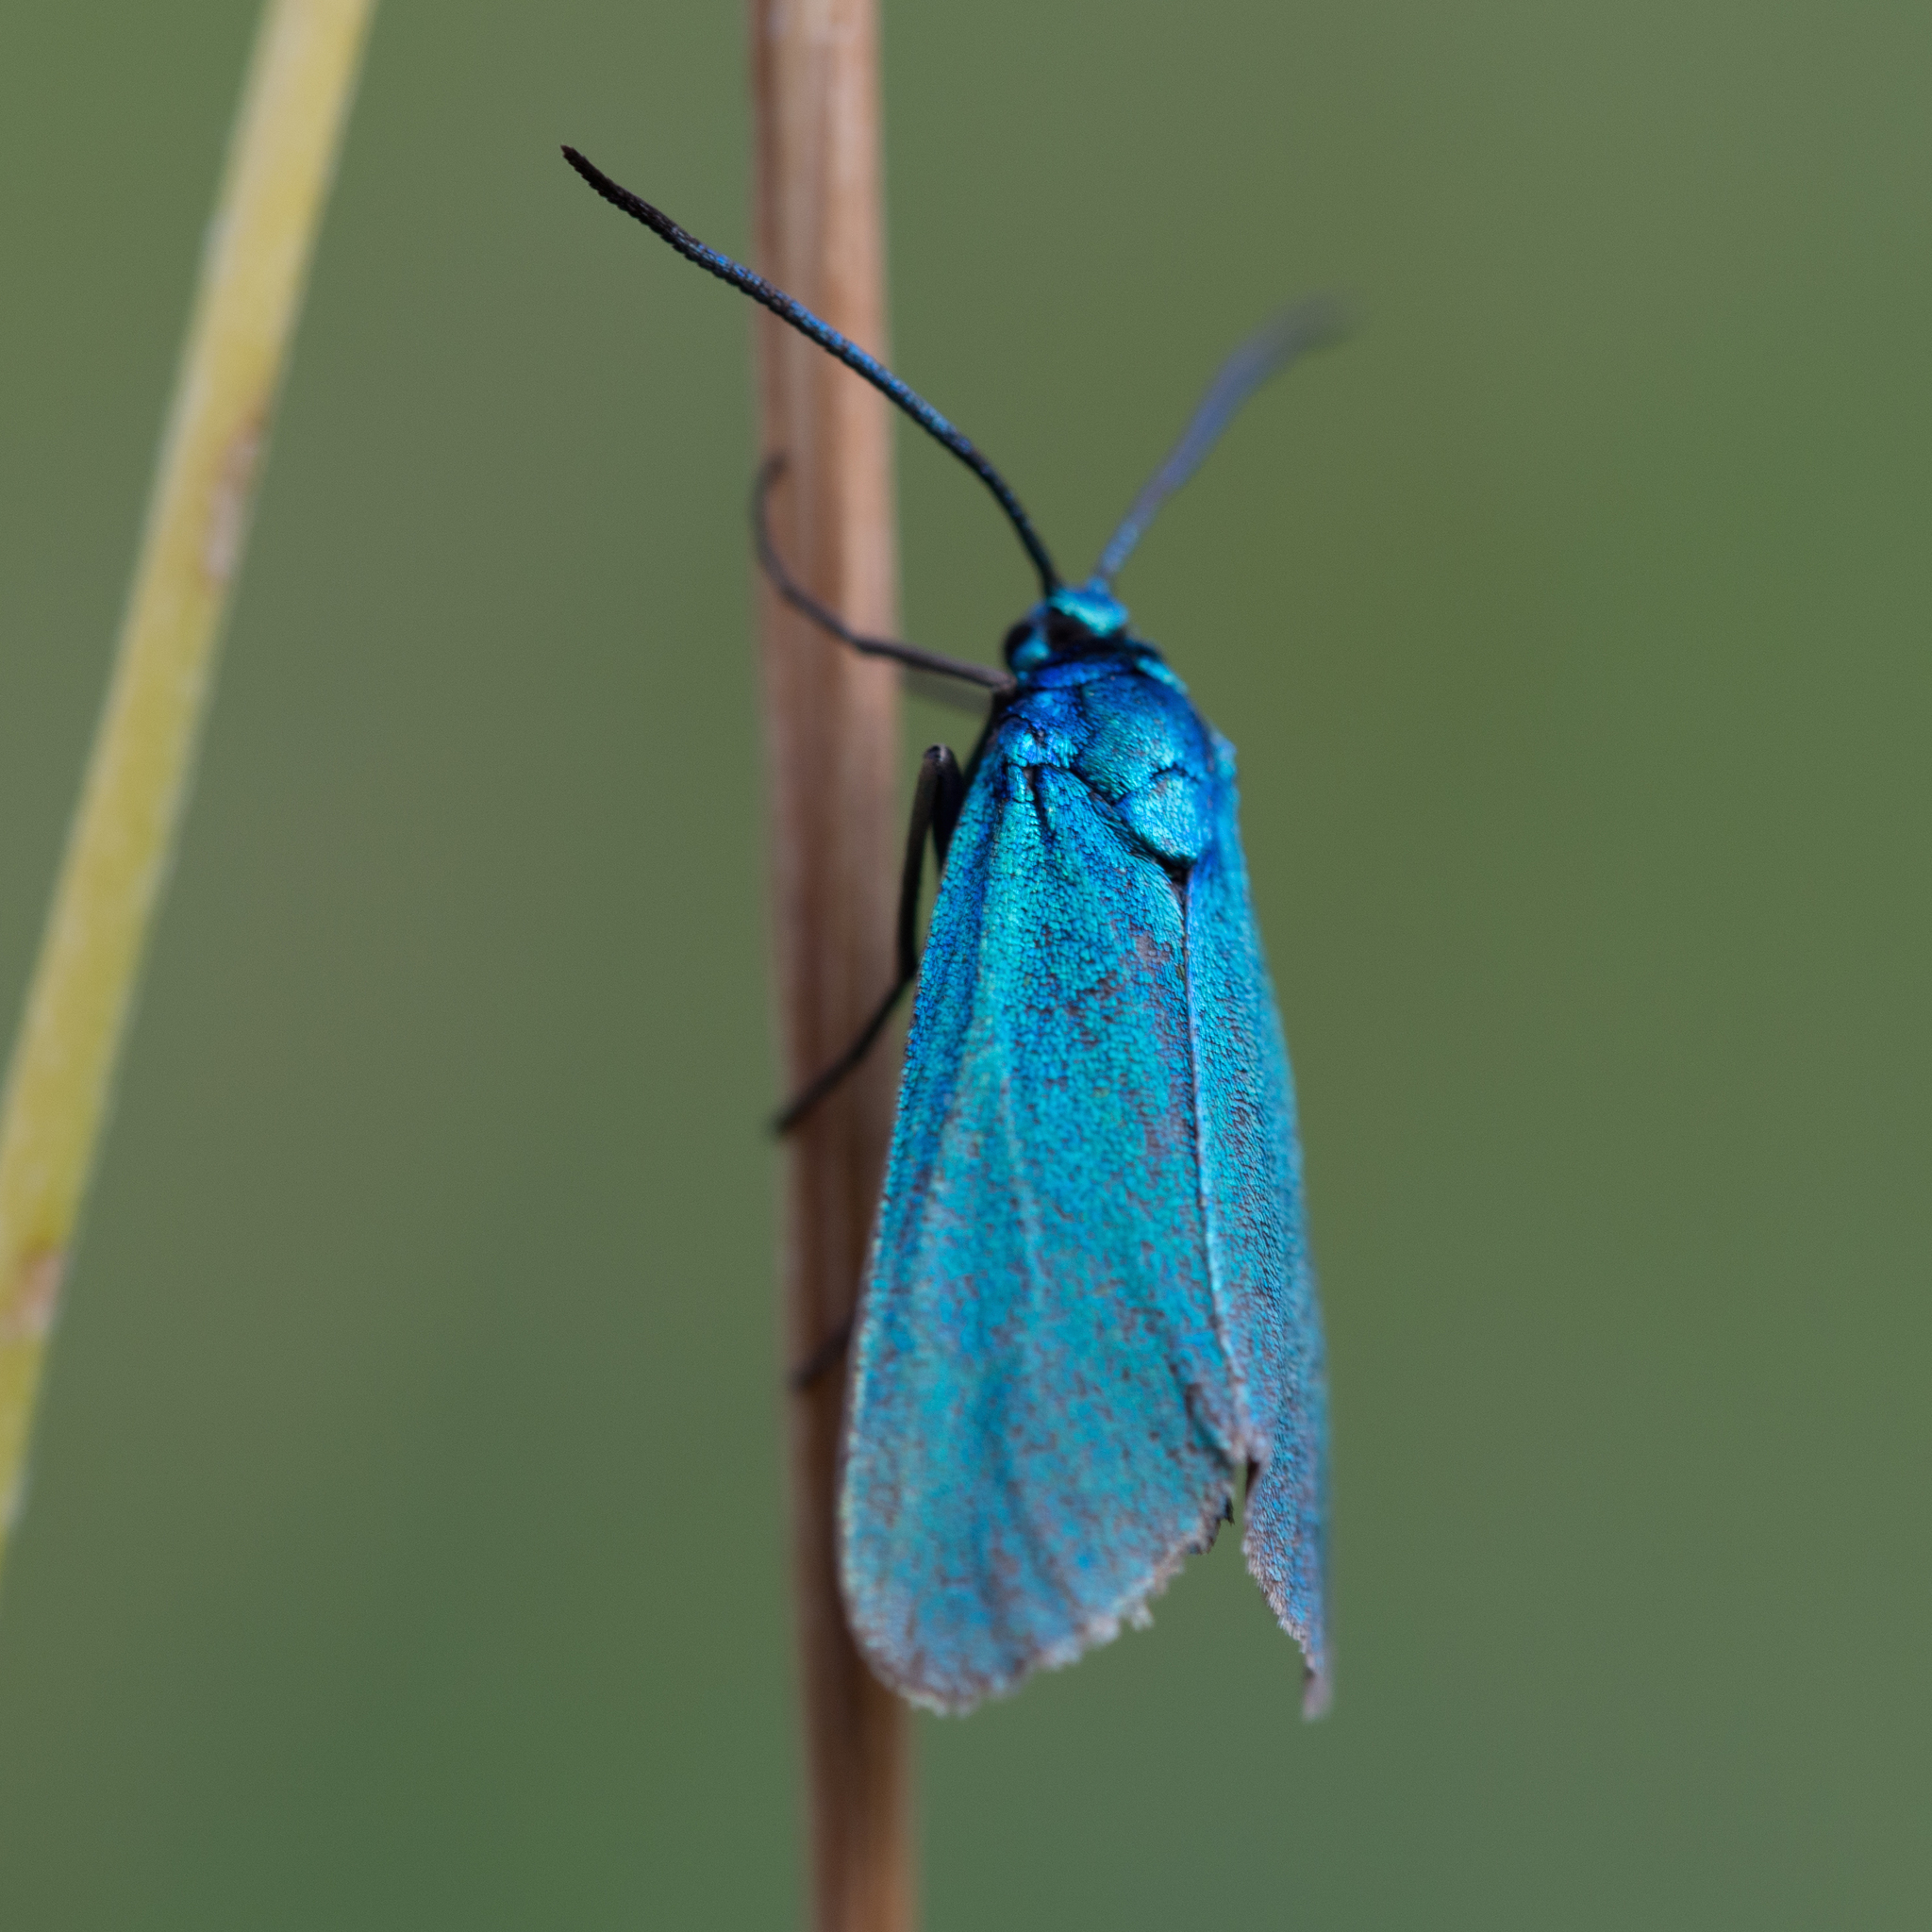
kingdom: Animalia
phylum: Arthropoda
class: Insecta
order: Lepidoptera
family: Zygaenidae
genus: Adscita
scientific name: Adscita
